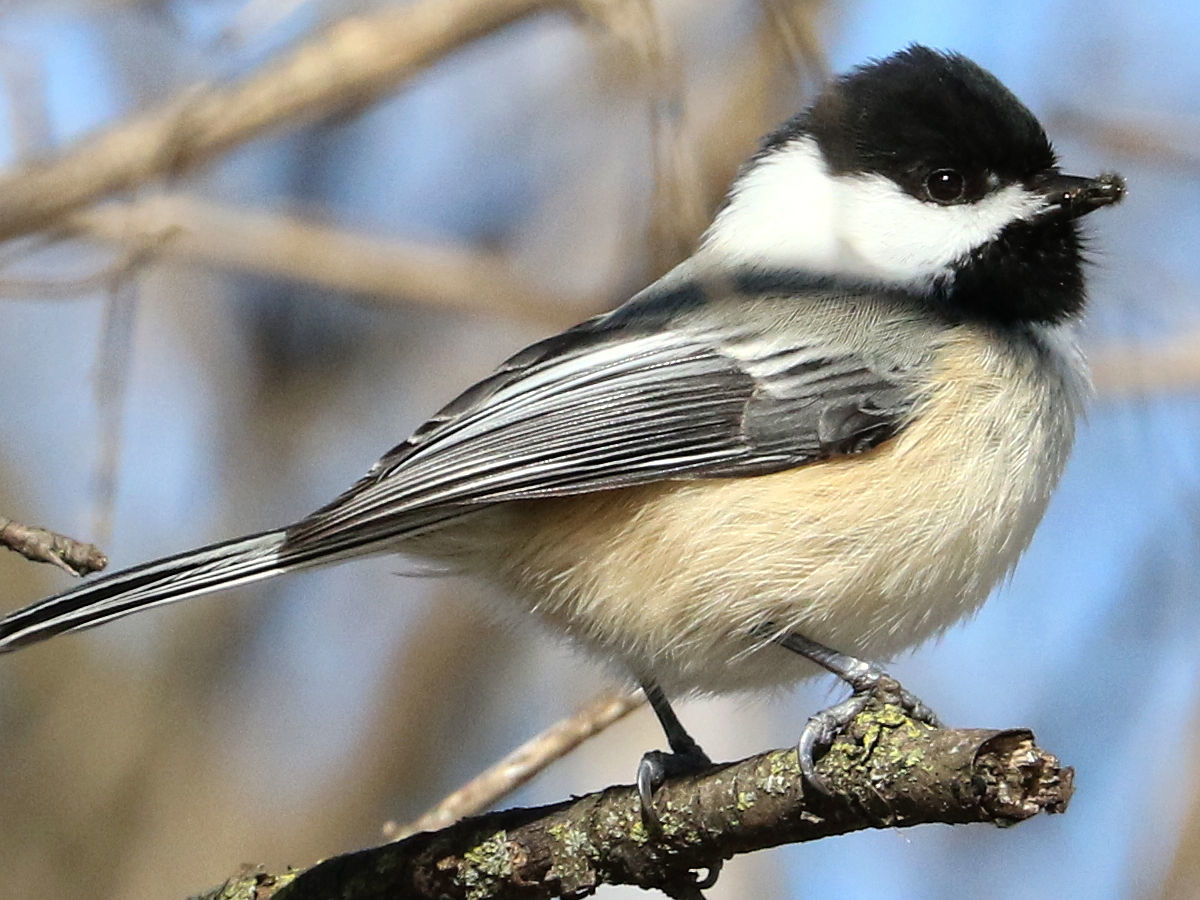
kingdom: Animalia
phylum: Chordata
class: Aves
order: Passeriformes
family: Paridae
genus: Poecile
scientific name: Poecile atricapillus
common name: Black-capped chickadee
